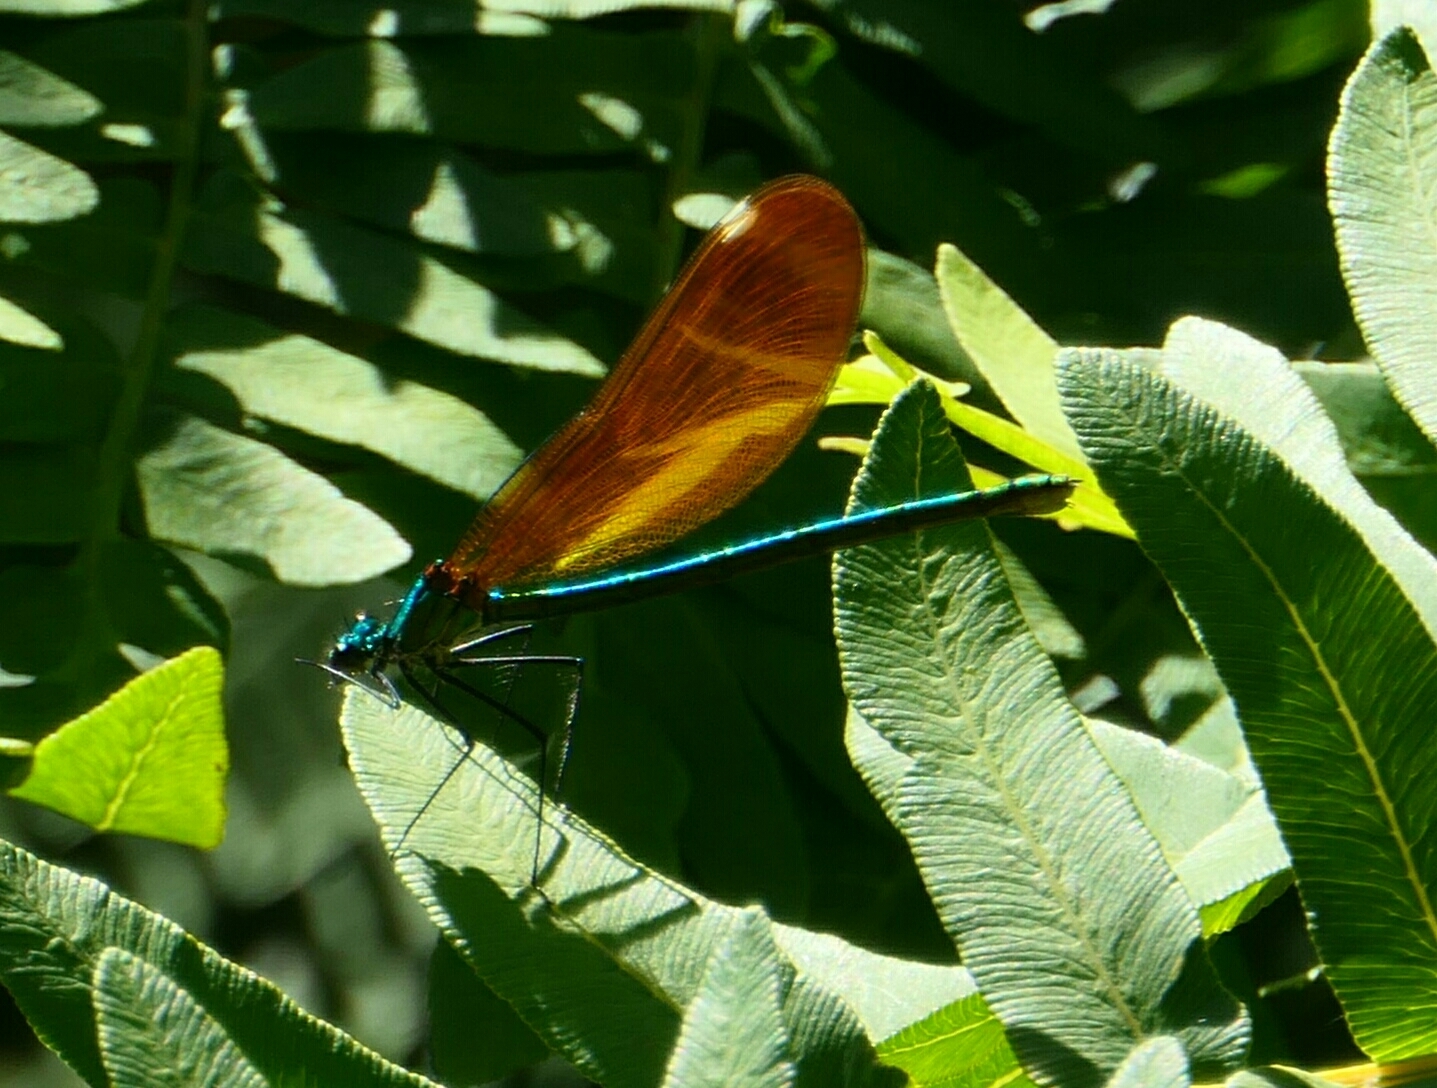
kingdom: Animalia
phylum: Arthropoda
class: Insecta
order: Odonata
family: Calopterygidae
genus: Calopteryx
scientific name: Calopteryx virgo
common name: Beautiful demoiselle
